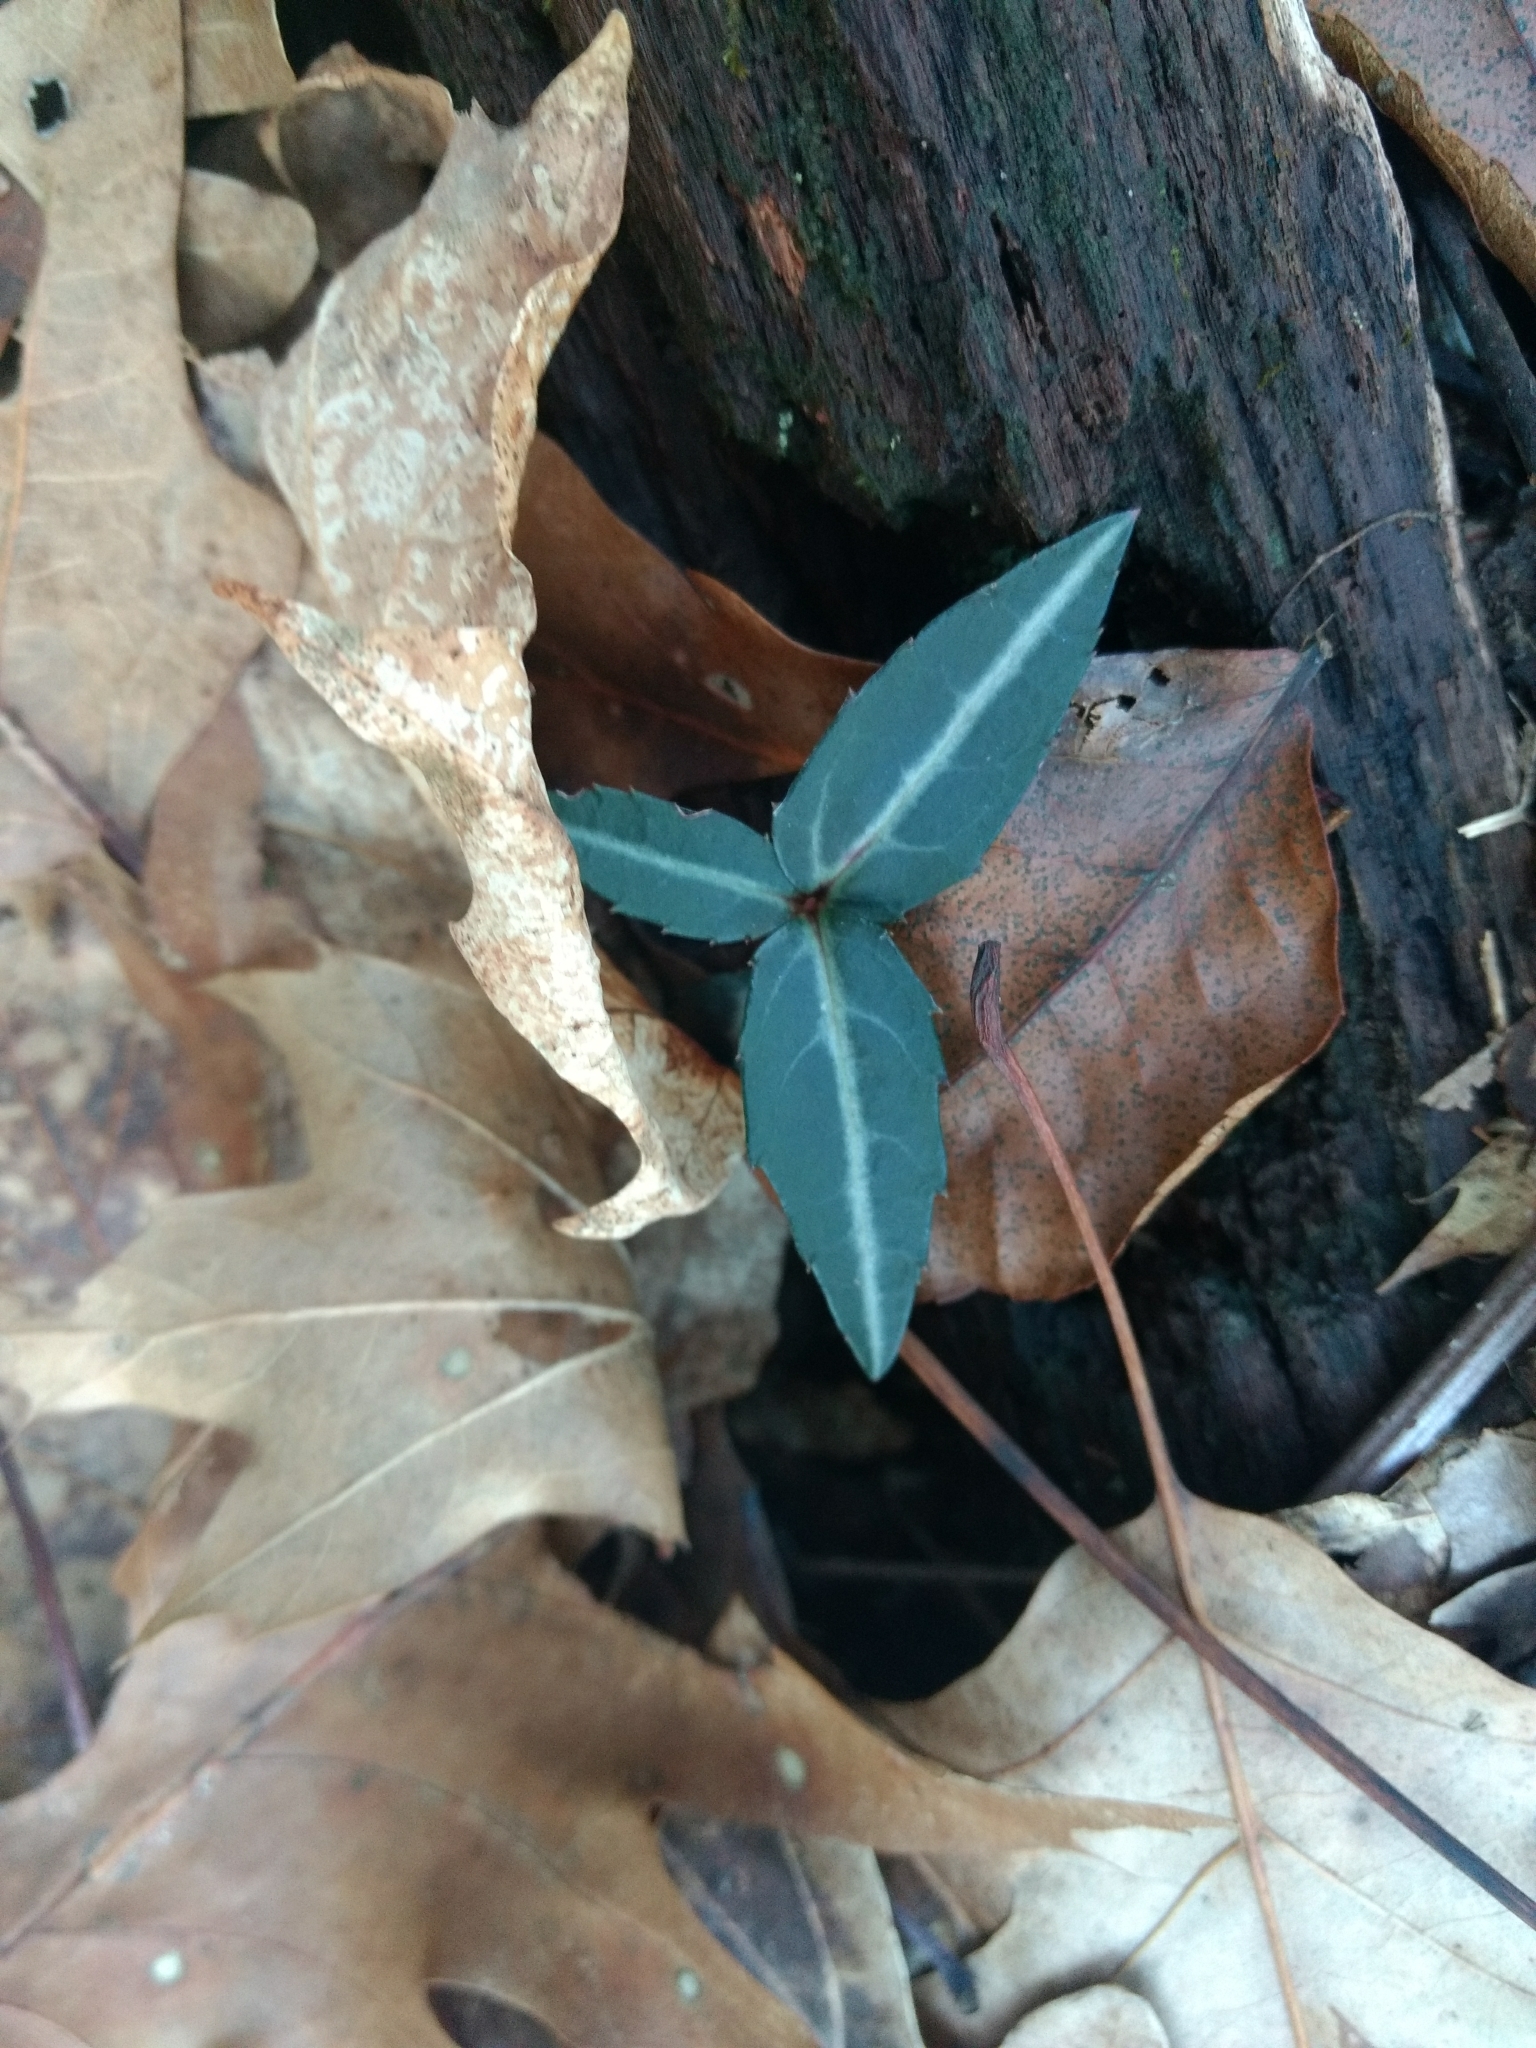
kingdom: Plantae
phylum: Tracheophyta
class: Magnoliopsida
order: Ericales
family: Ericaceae
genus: Chimaphila
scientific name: Chimaphila maculata
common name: Spotted pipsissewa
